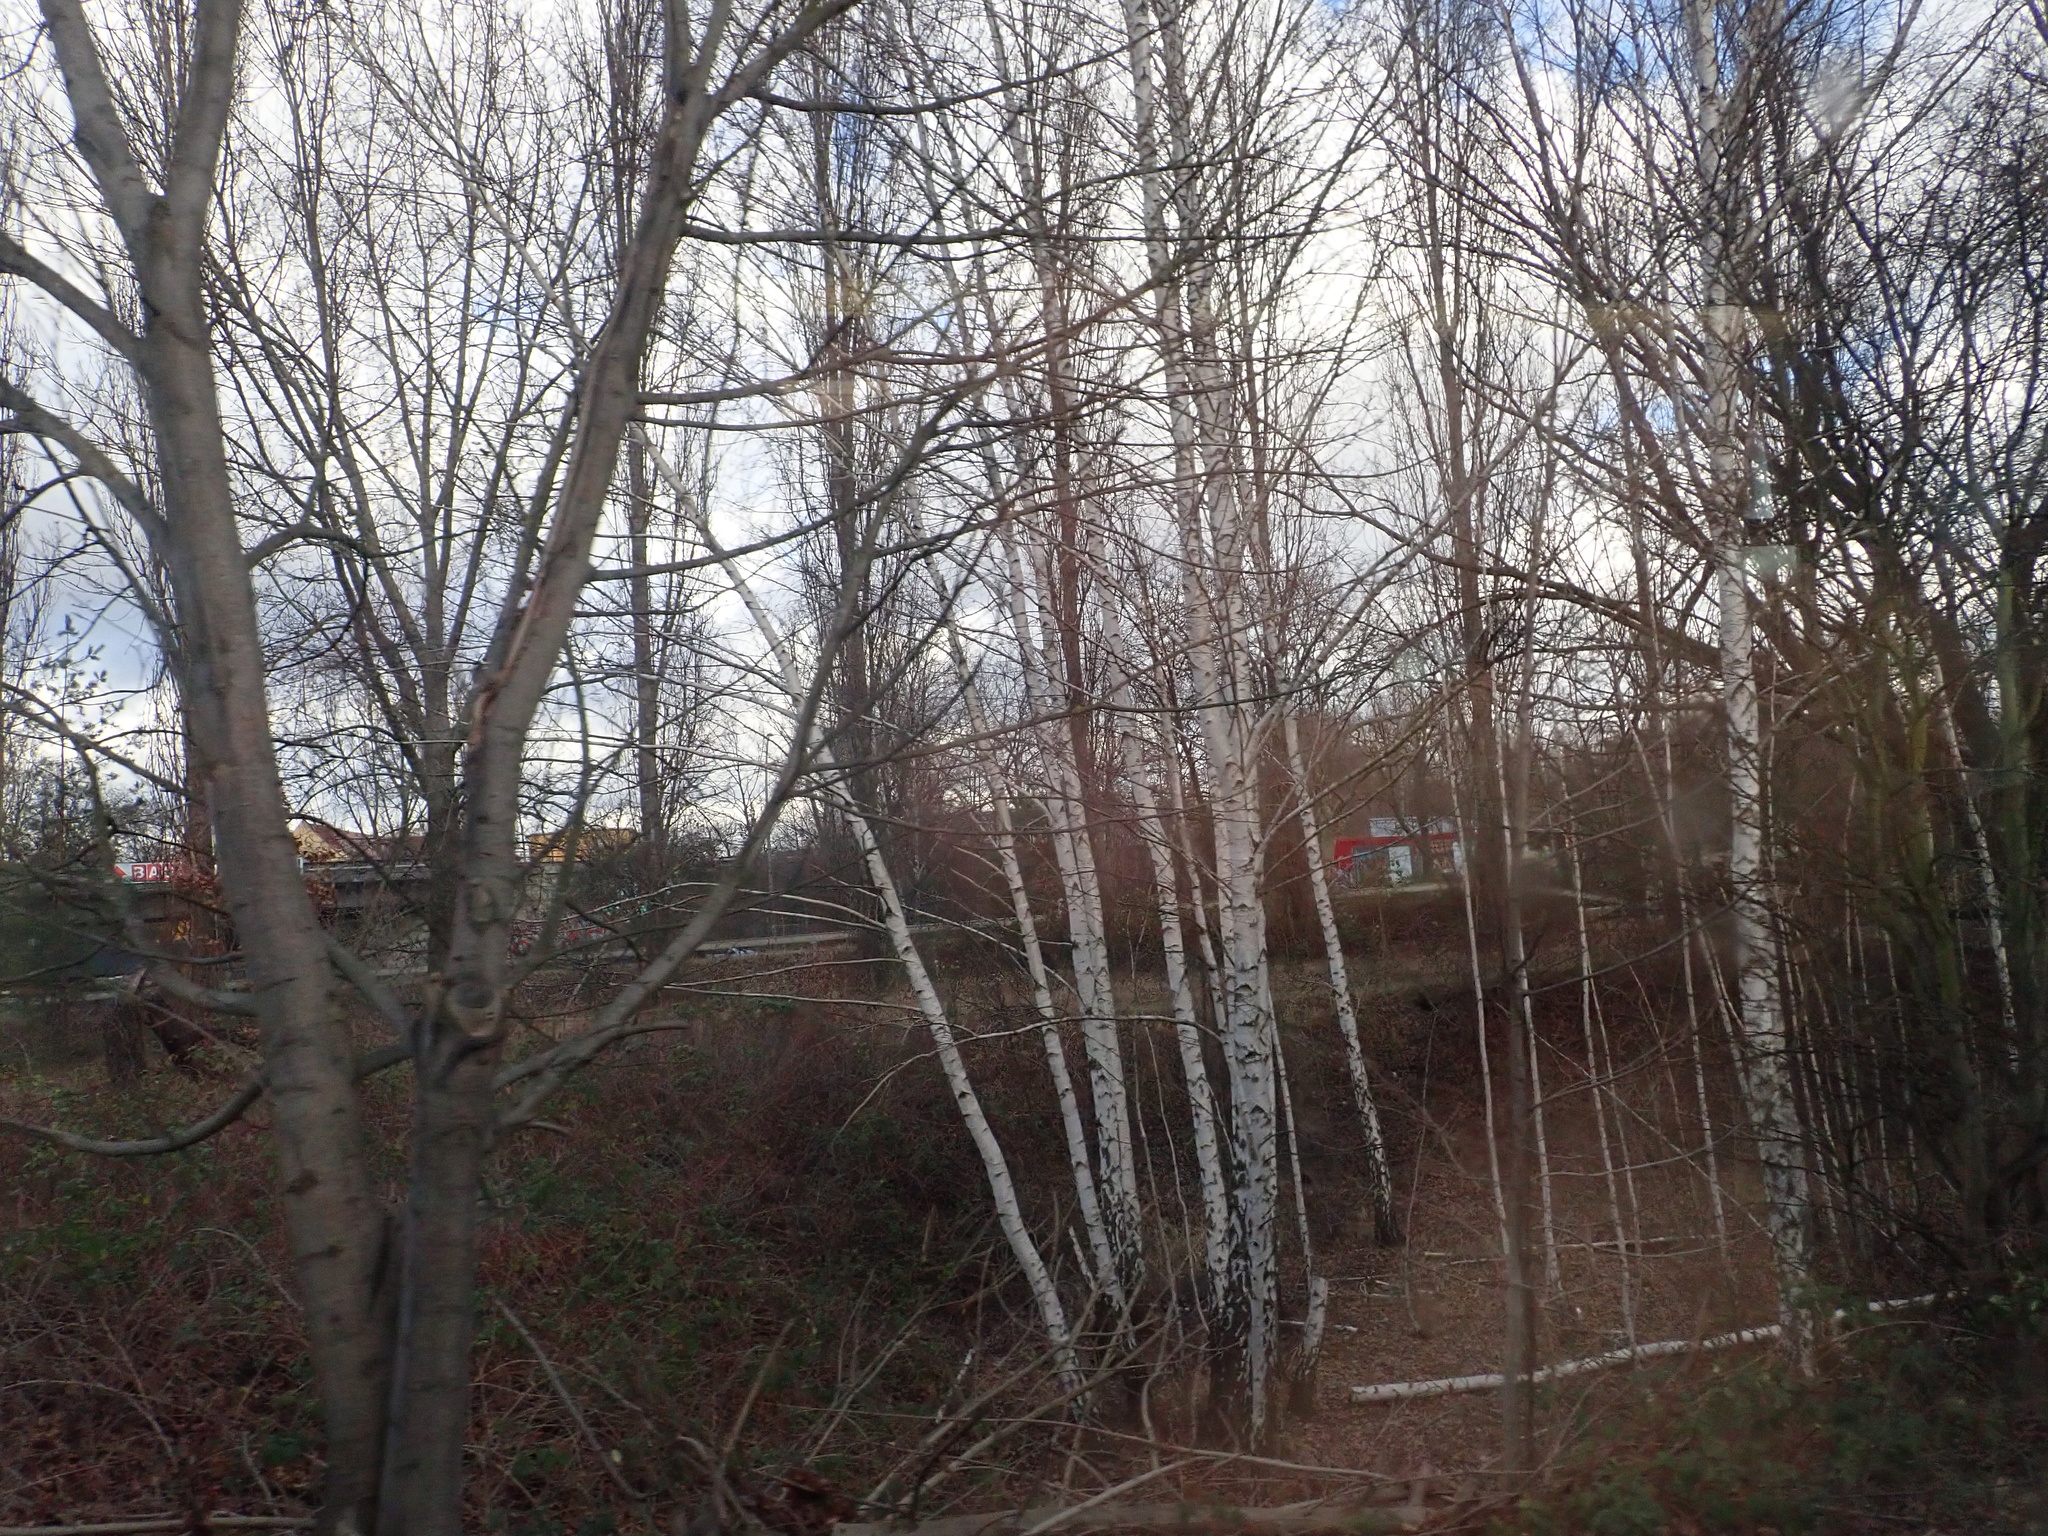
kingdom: Plantae
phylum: Tracheophyta
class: Magnoliopsida
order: Fagales
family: Betulaceae
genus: Betula
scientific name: Betula pendula
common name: Silver birch
